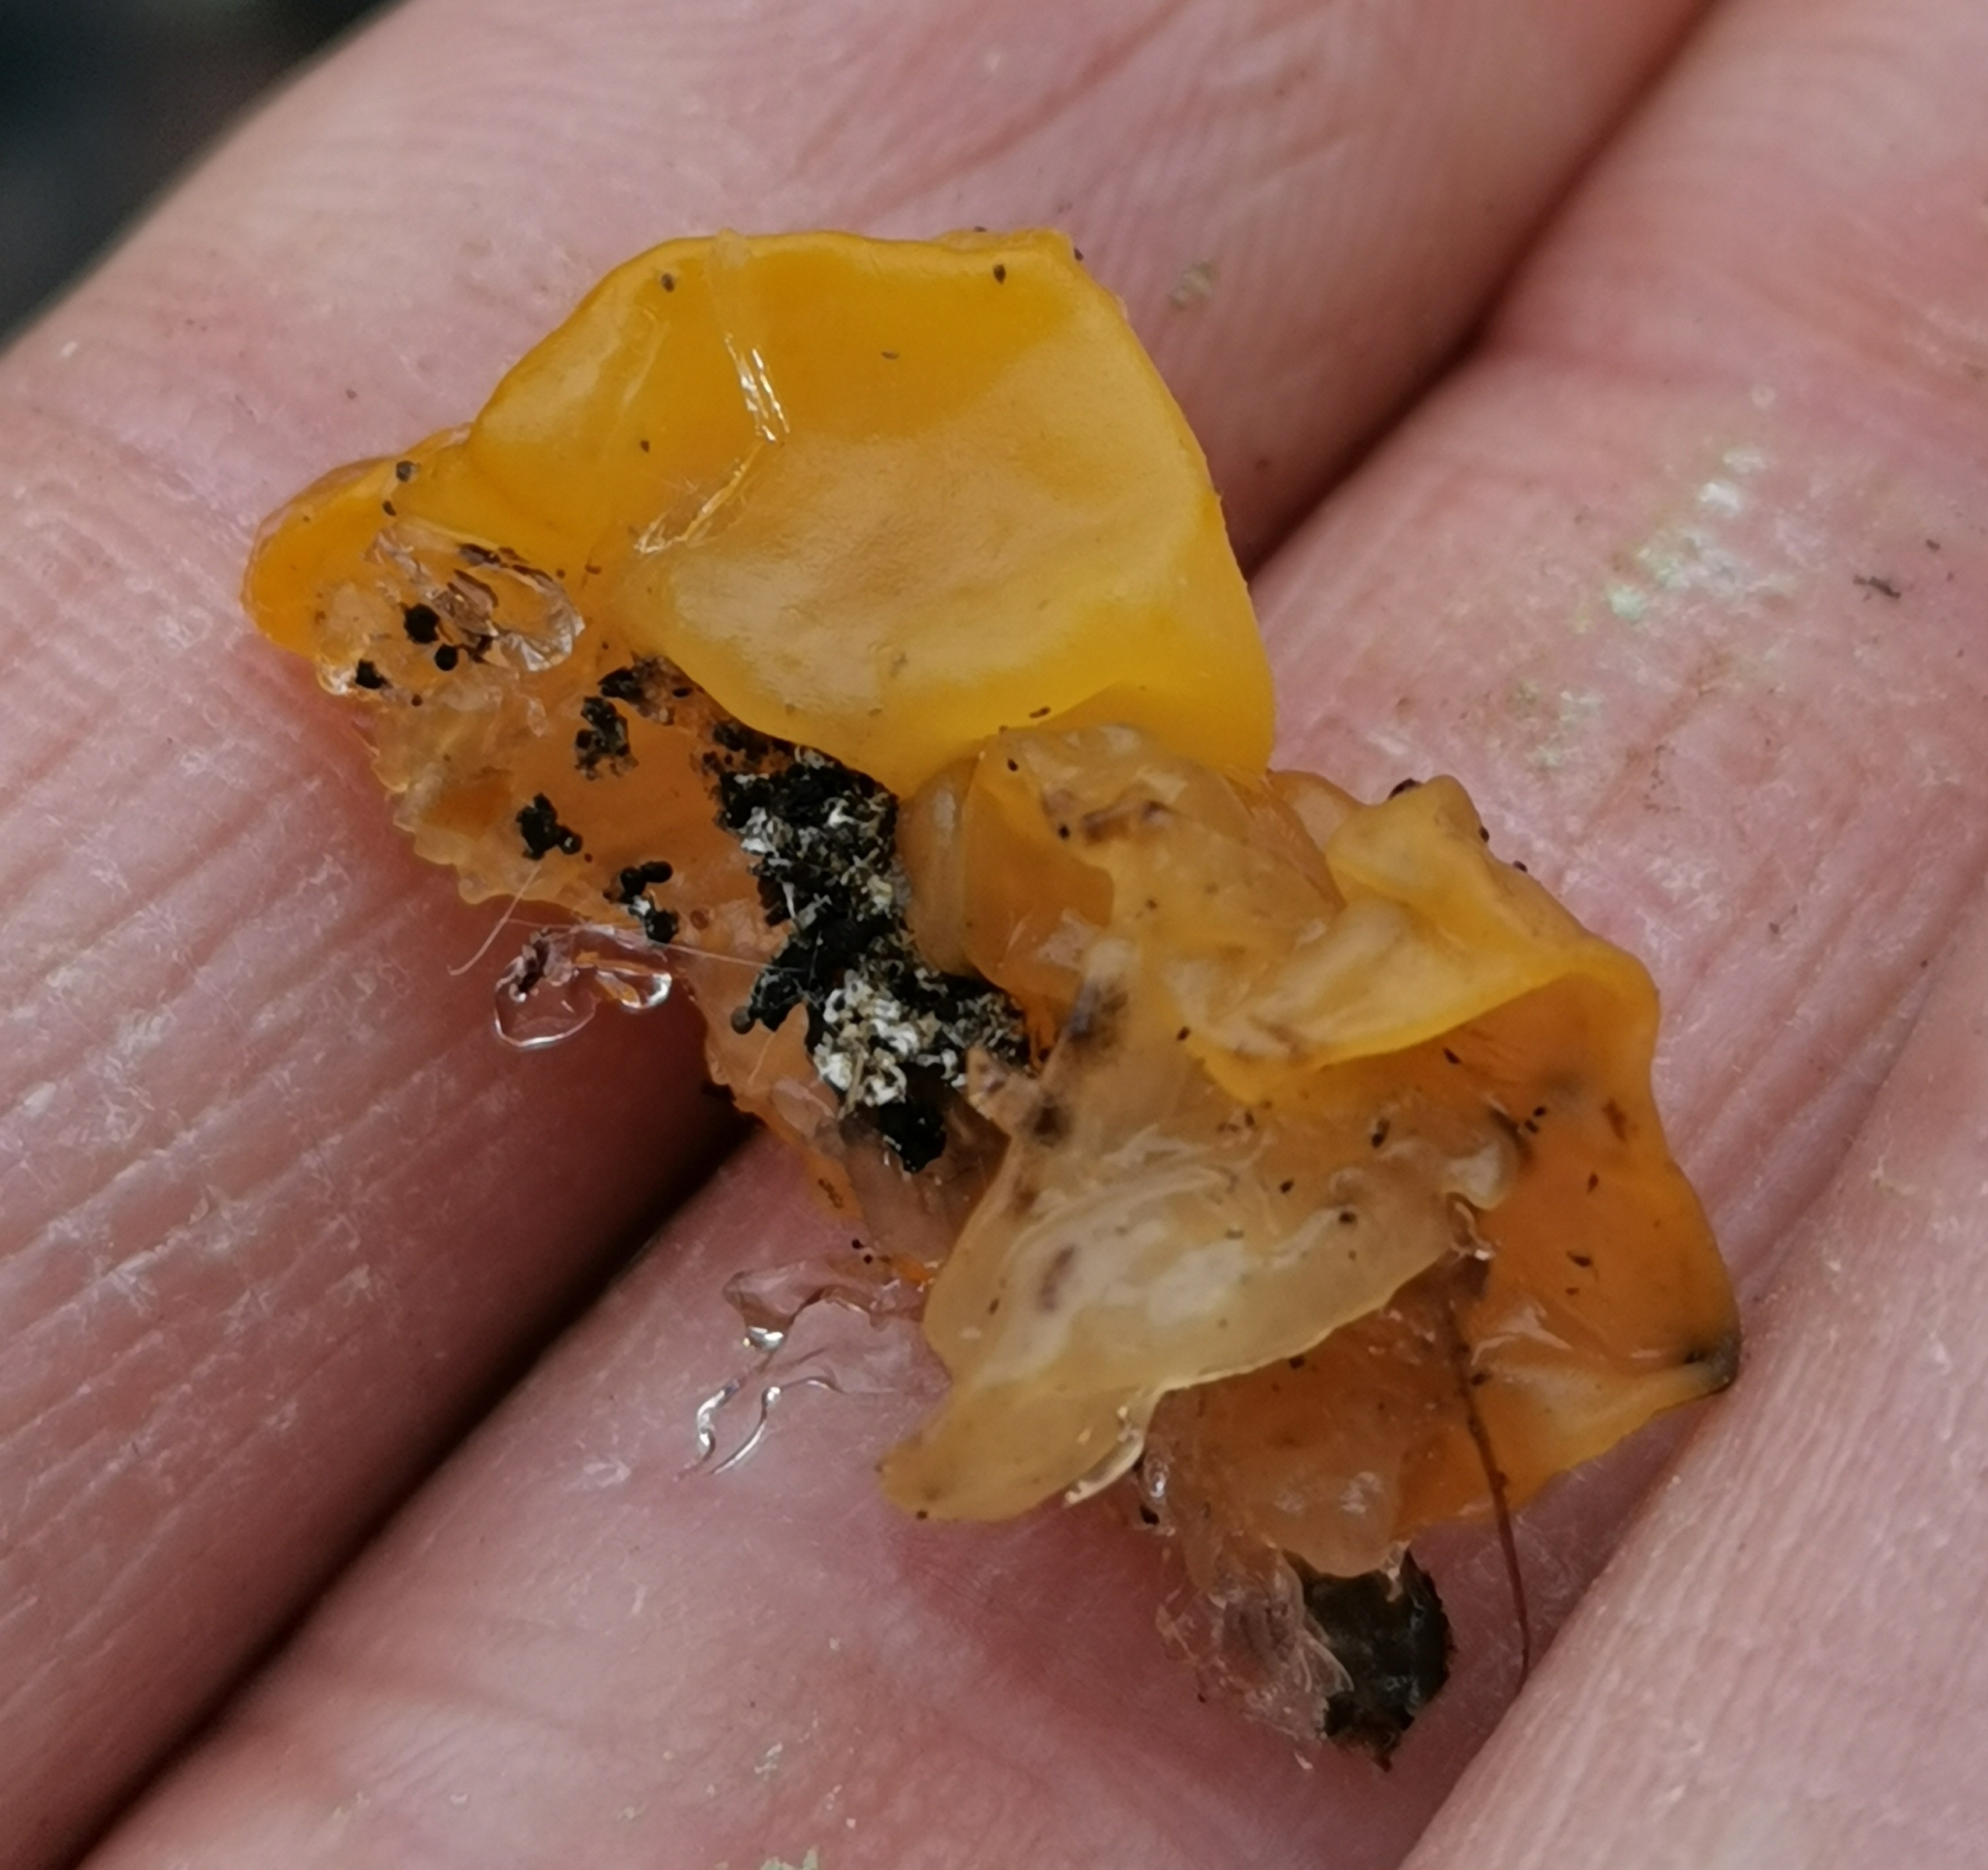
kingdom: Fungi
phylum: Basidiomycota
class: Tremellomycetes
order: Tremellales
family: Tremellaceae
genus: Tremella
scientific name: Tremella mesenterica
